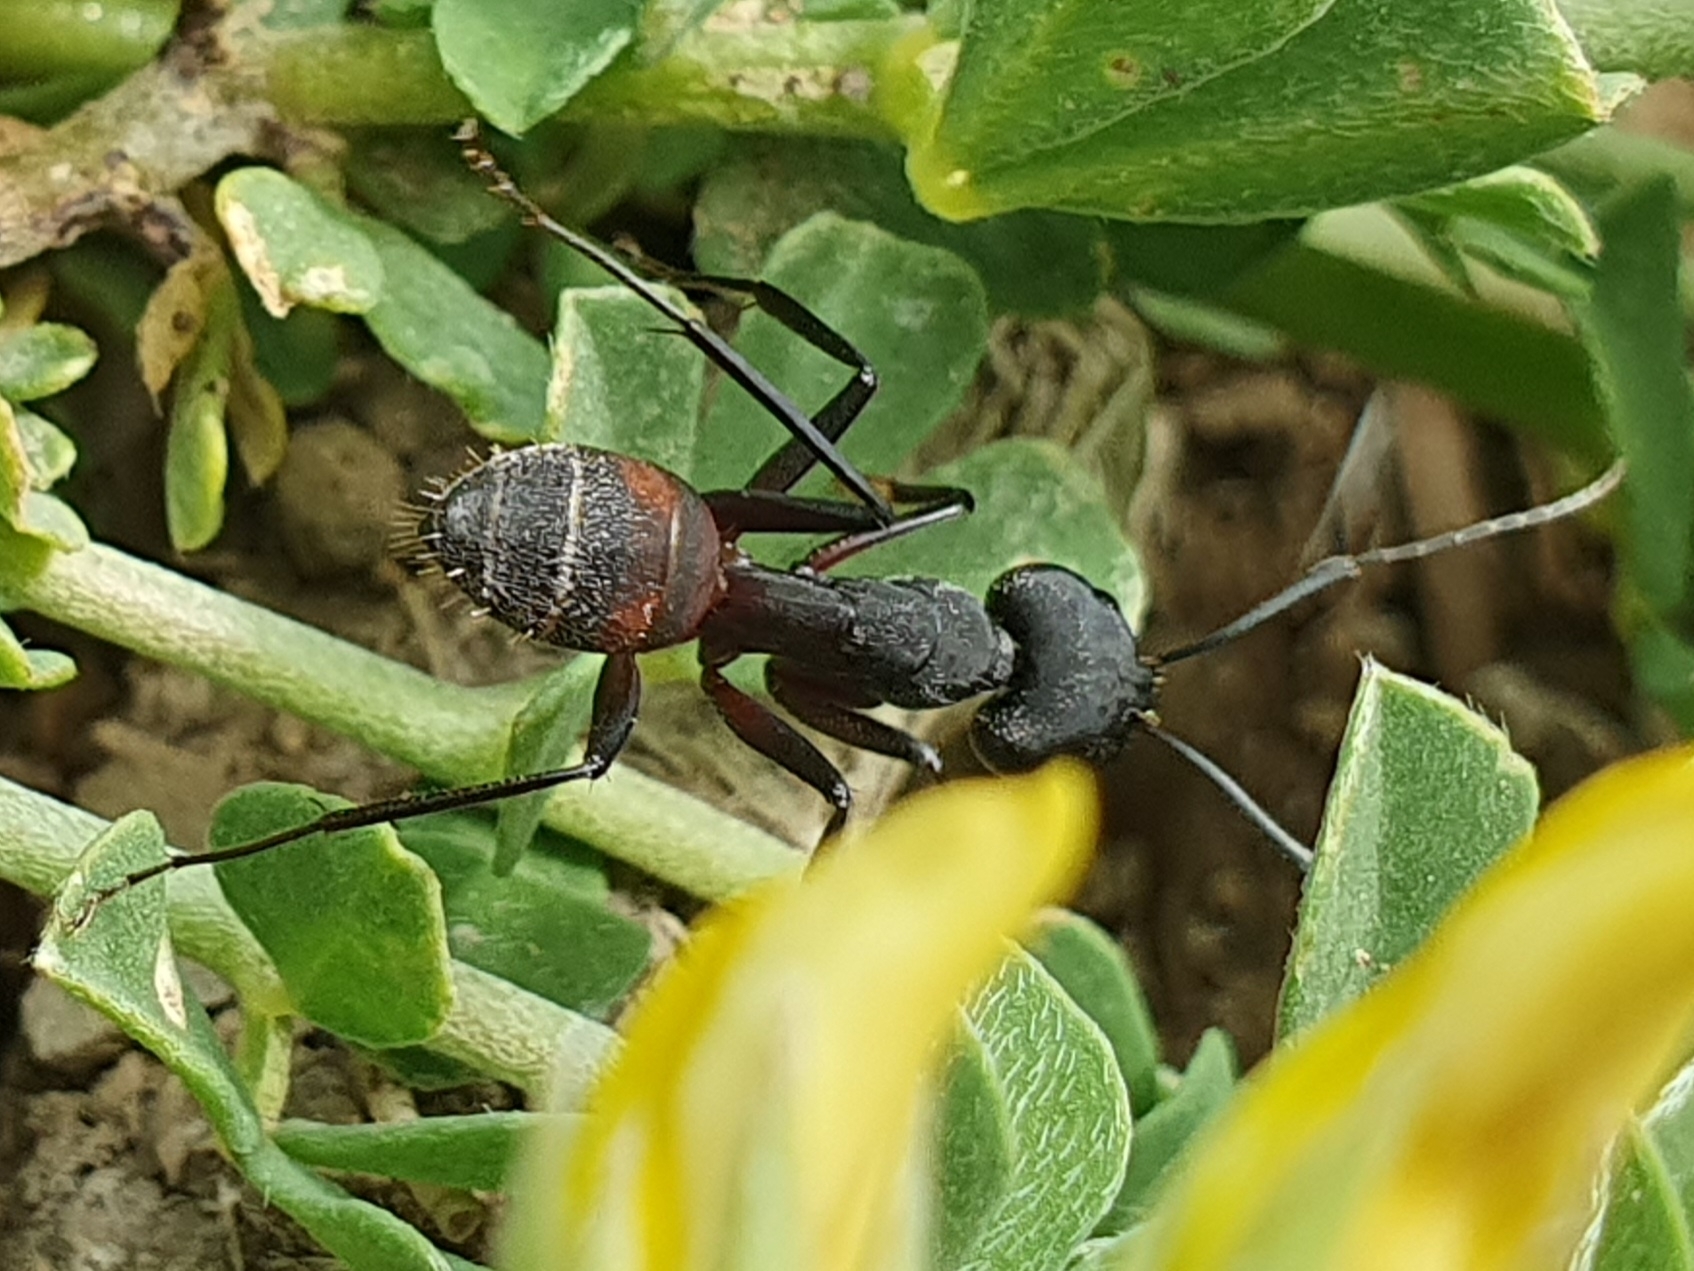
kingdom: Animalia
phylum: Arthropoda
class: Insecta
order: Hymenoptera
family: Formicidae
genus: Camponotus
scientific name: Camponotus cruentatus
